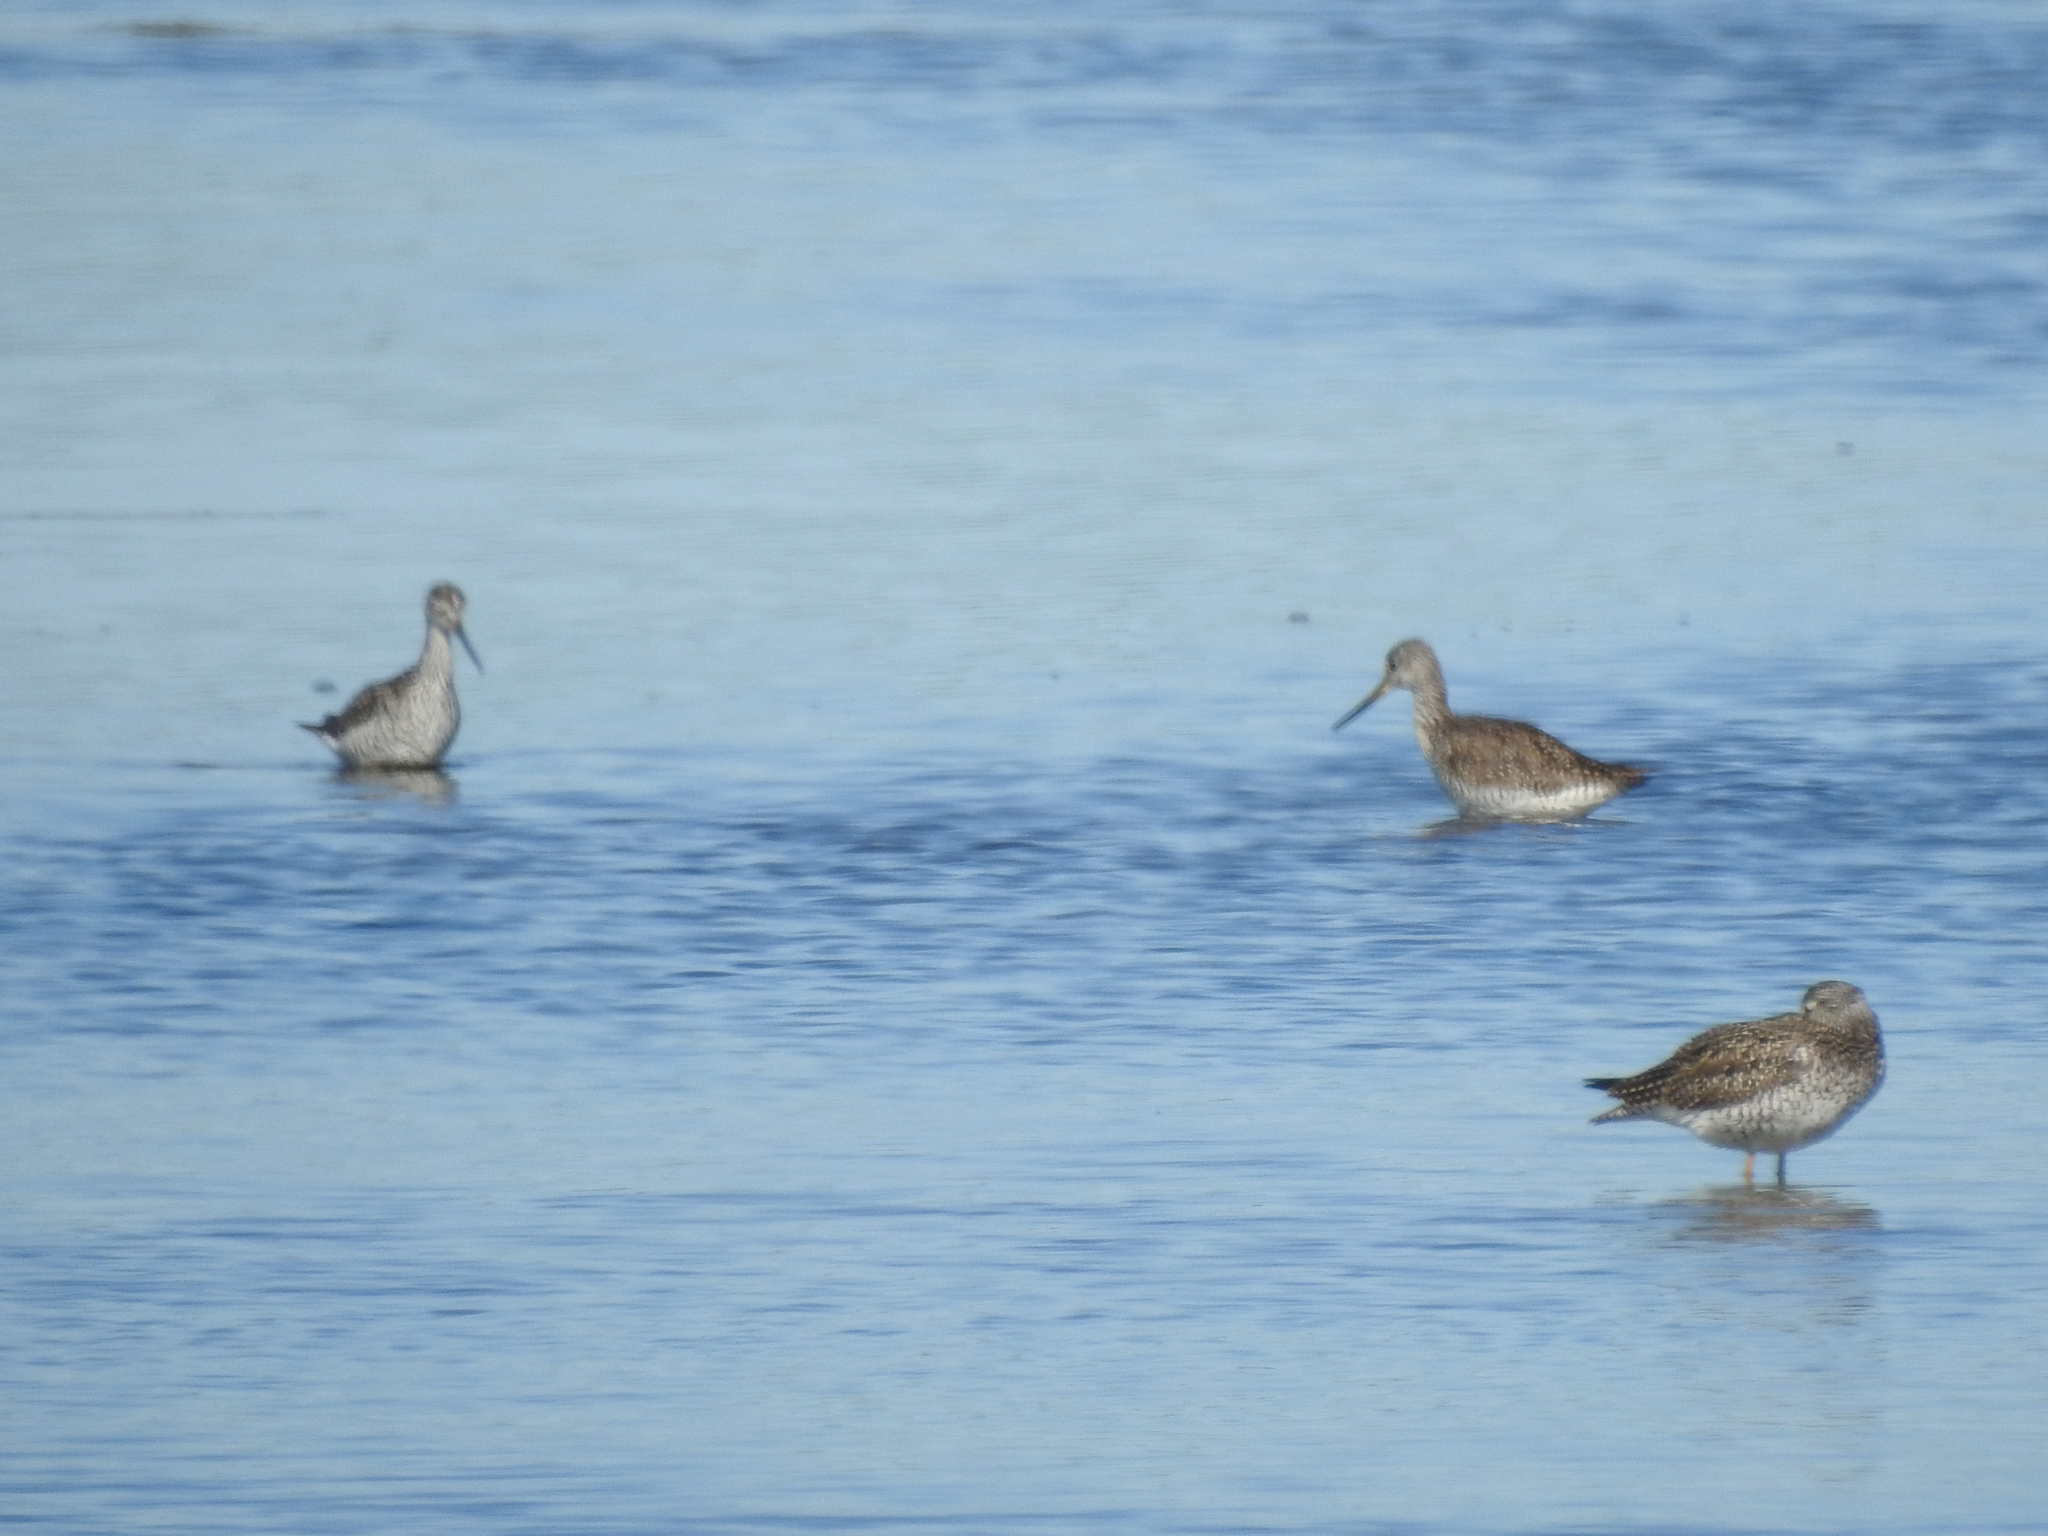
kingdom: Animalia
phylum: Chordata
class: Aves
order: Charadriiformes
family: Scolopacidae
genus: Tringa
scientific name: Tringa flavipes
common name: Lesser yellowlegs
